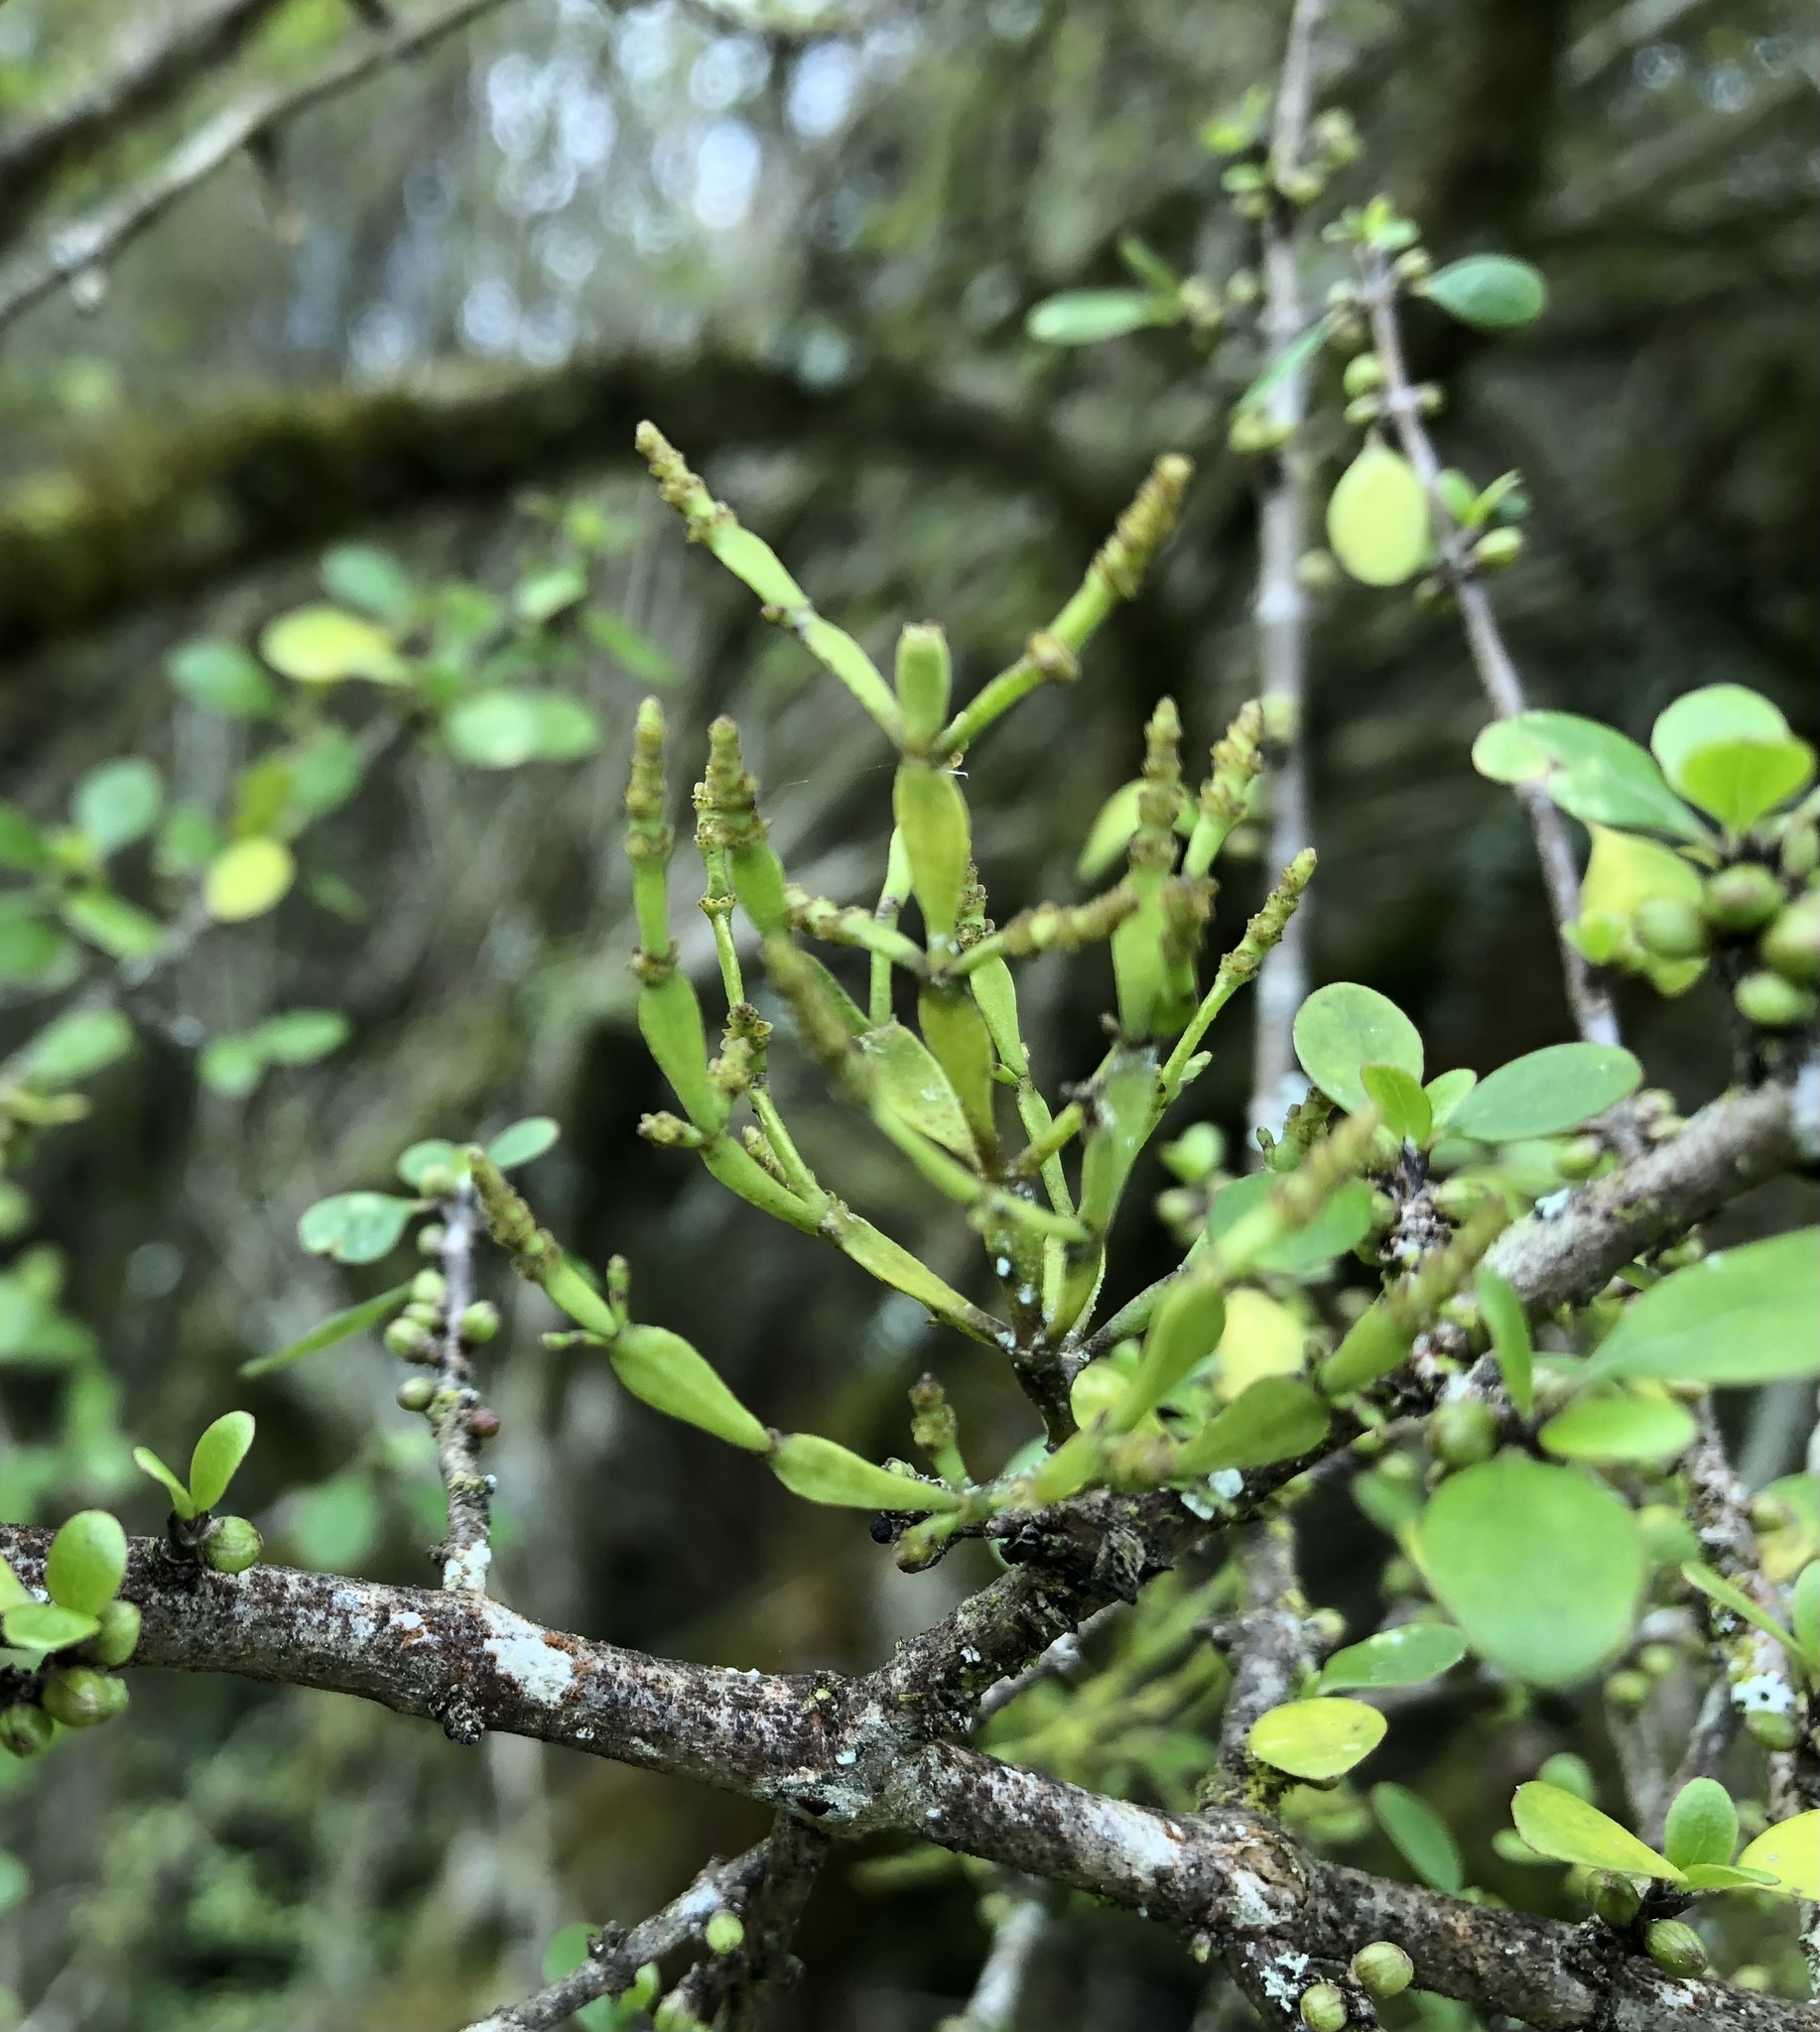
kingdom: Plantae
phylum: Tracheophyta
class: Magnoliopsida
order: Santalales
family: Viscaceae
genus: Korthalsella
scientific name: Korthalsella clavata
